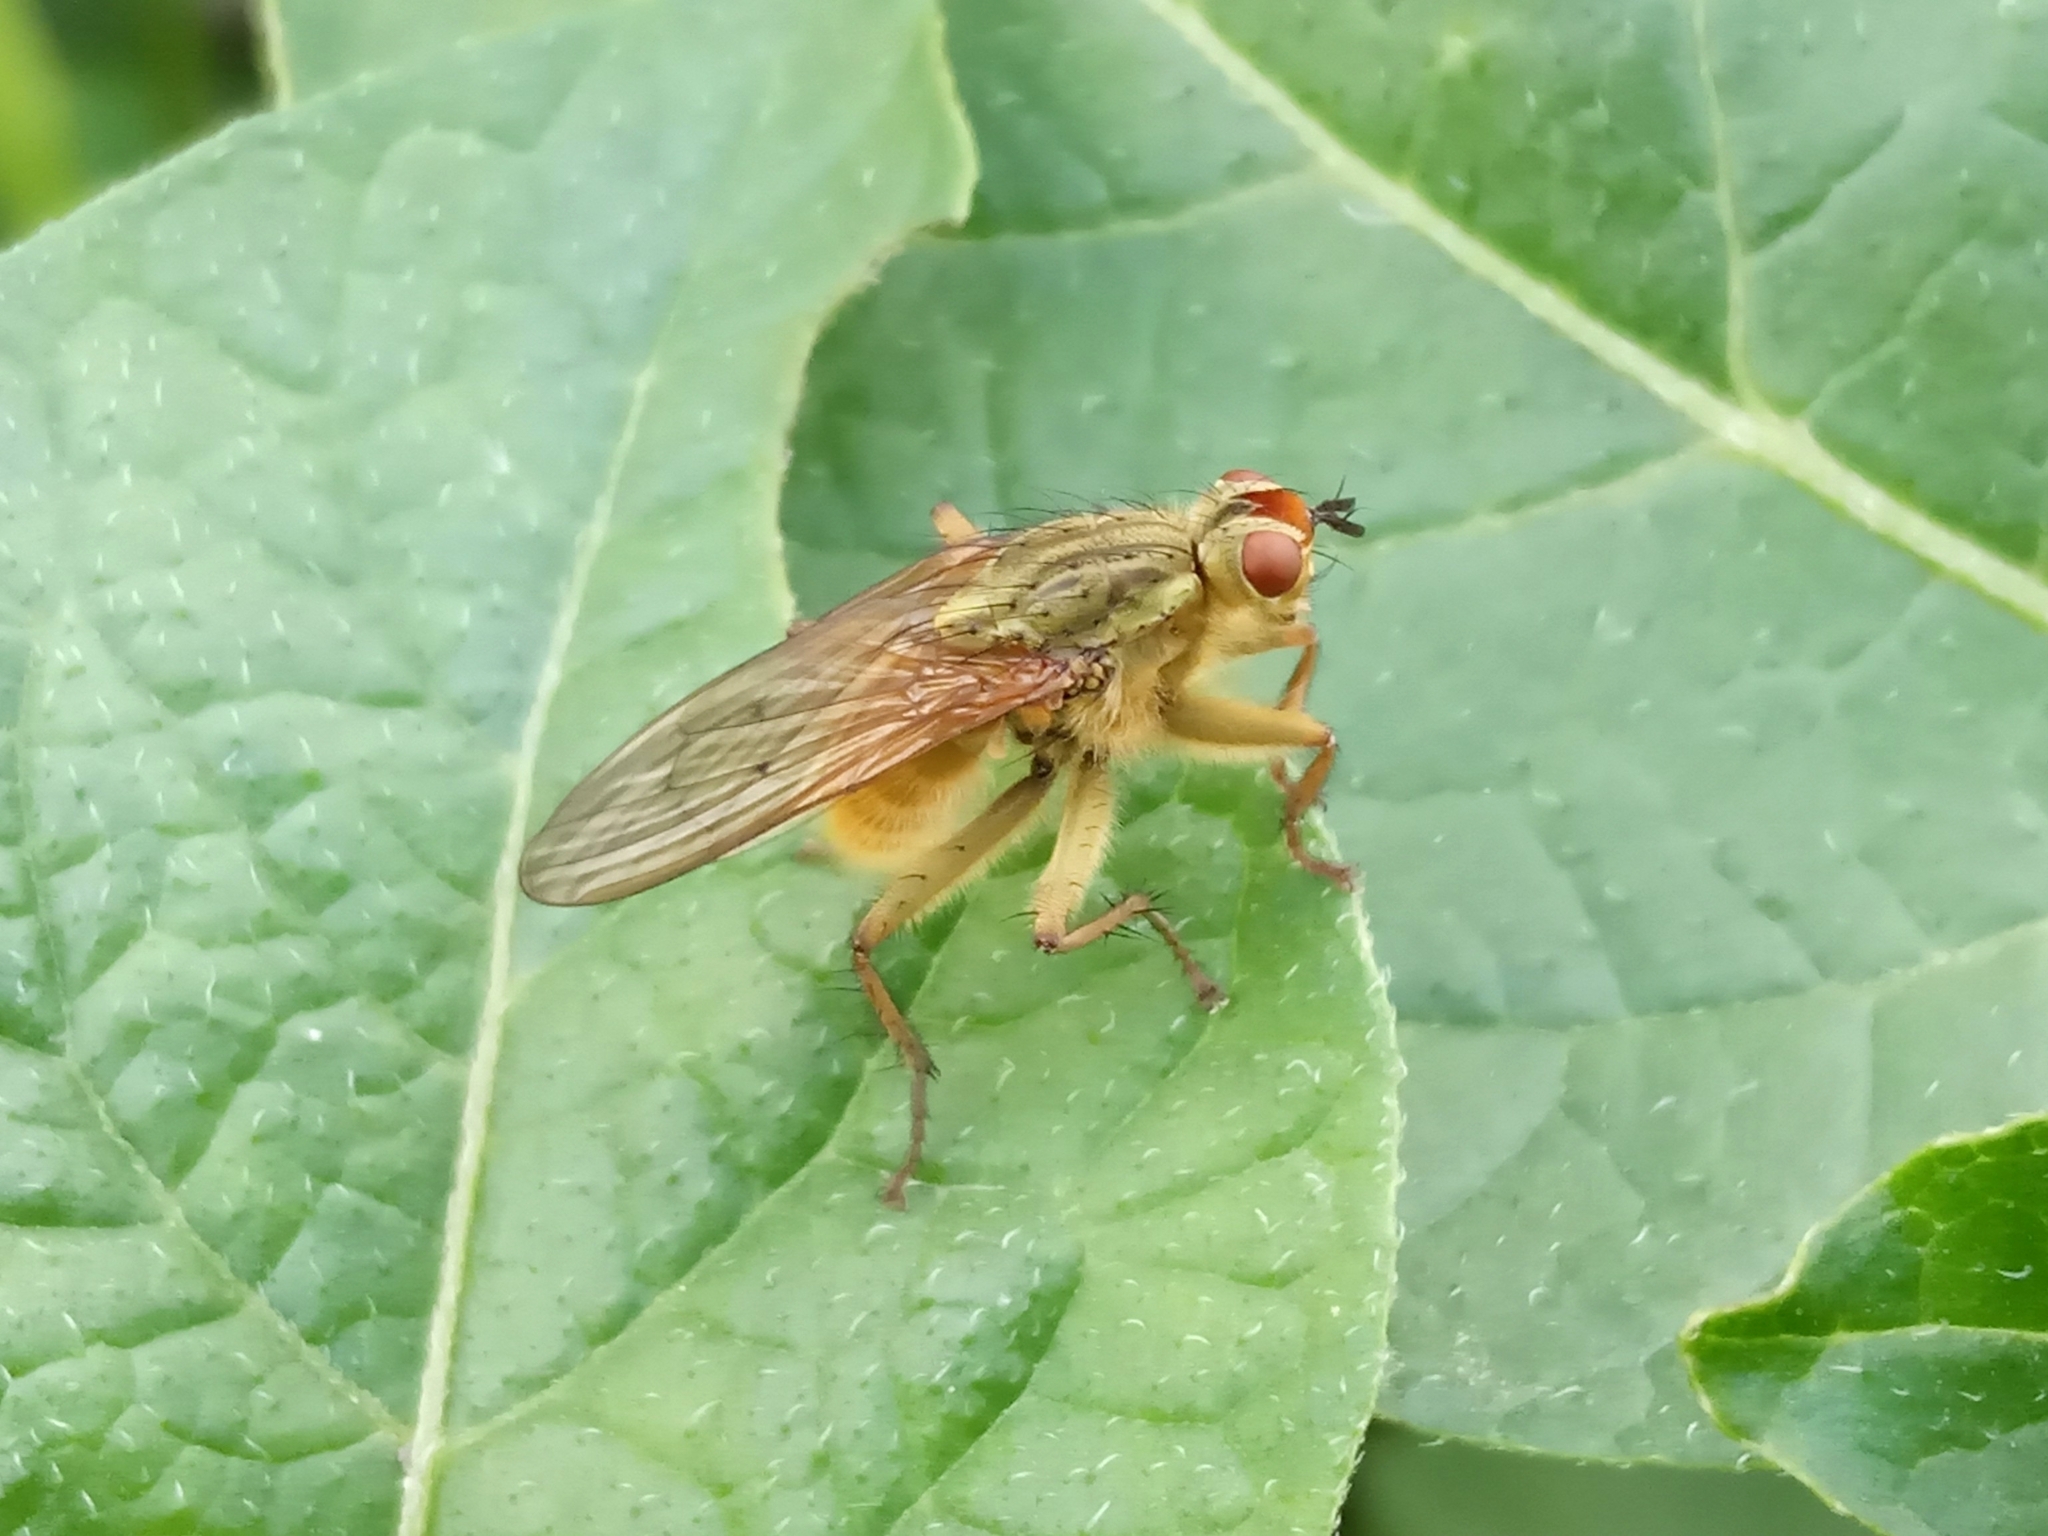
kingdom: Animalia
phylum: Arthropoda
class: Insecta
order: Diptera
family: Scathophagidae
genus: Scathophaga
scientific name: Scathophaga stercoraria
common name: Yellow dung fly
